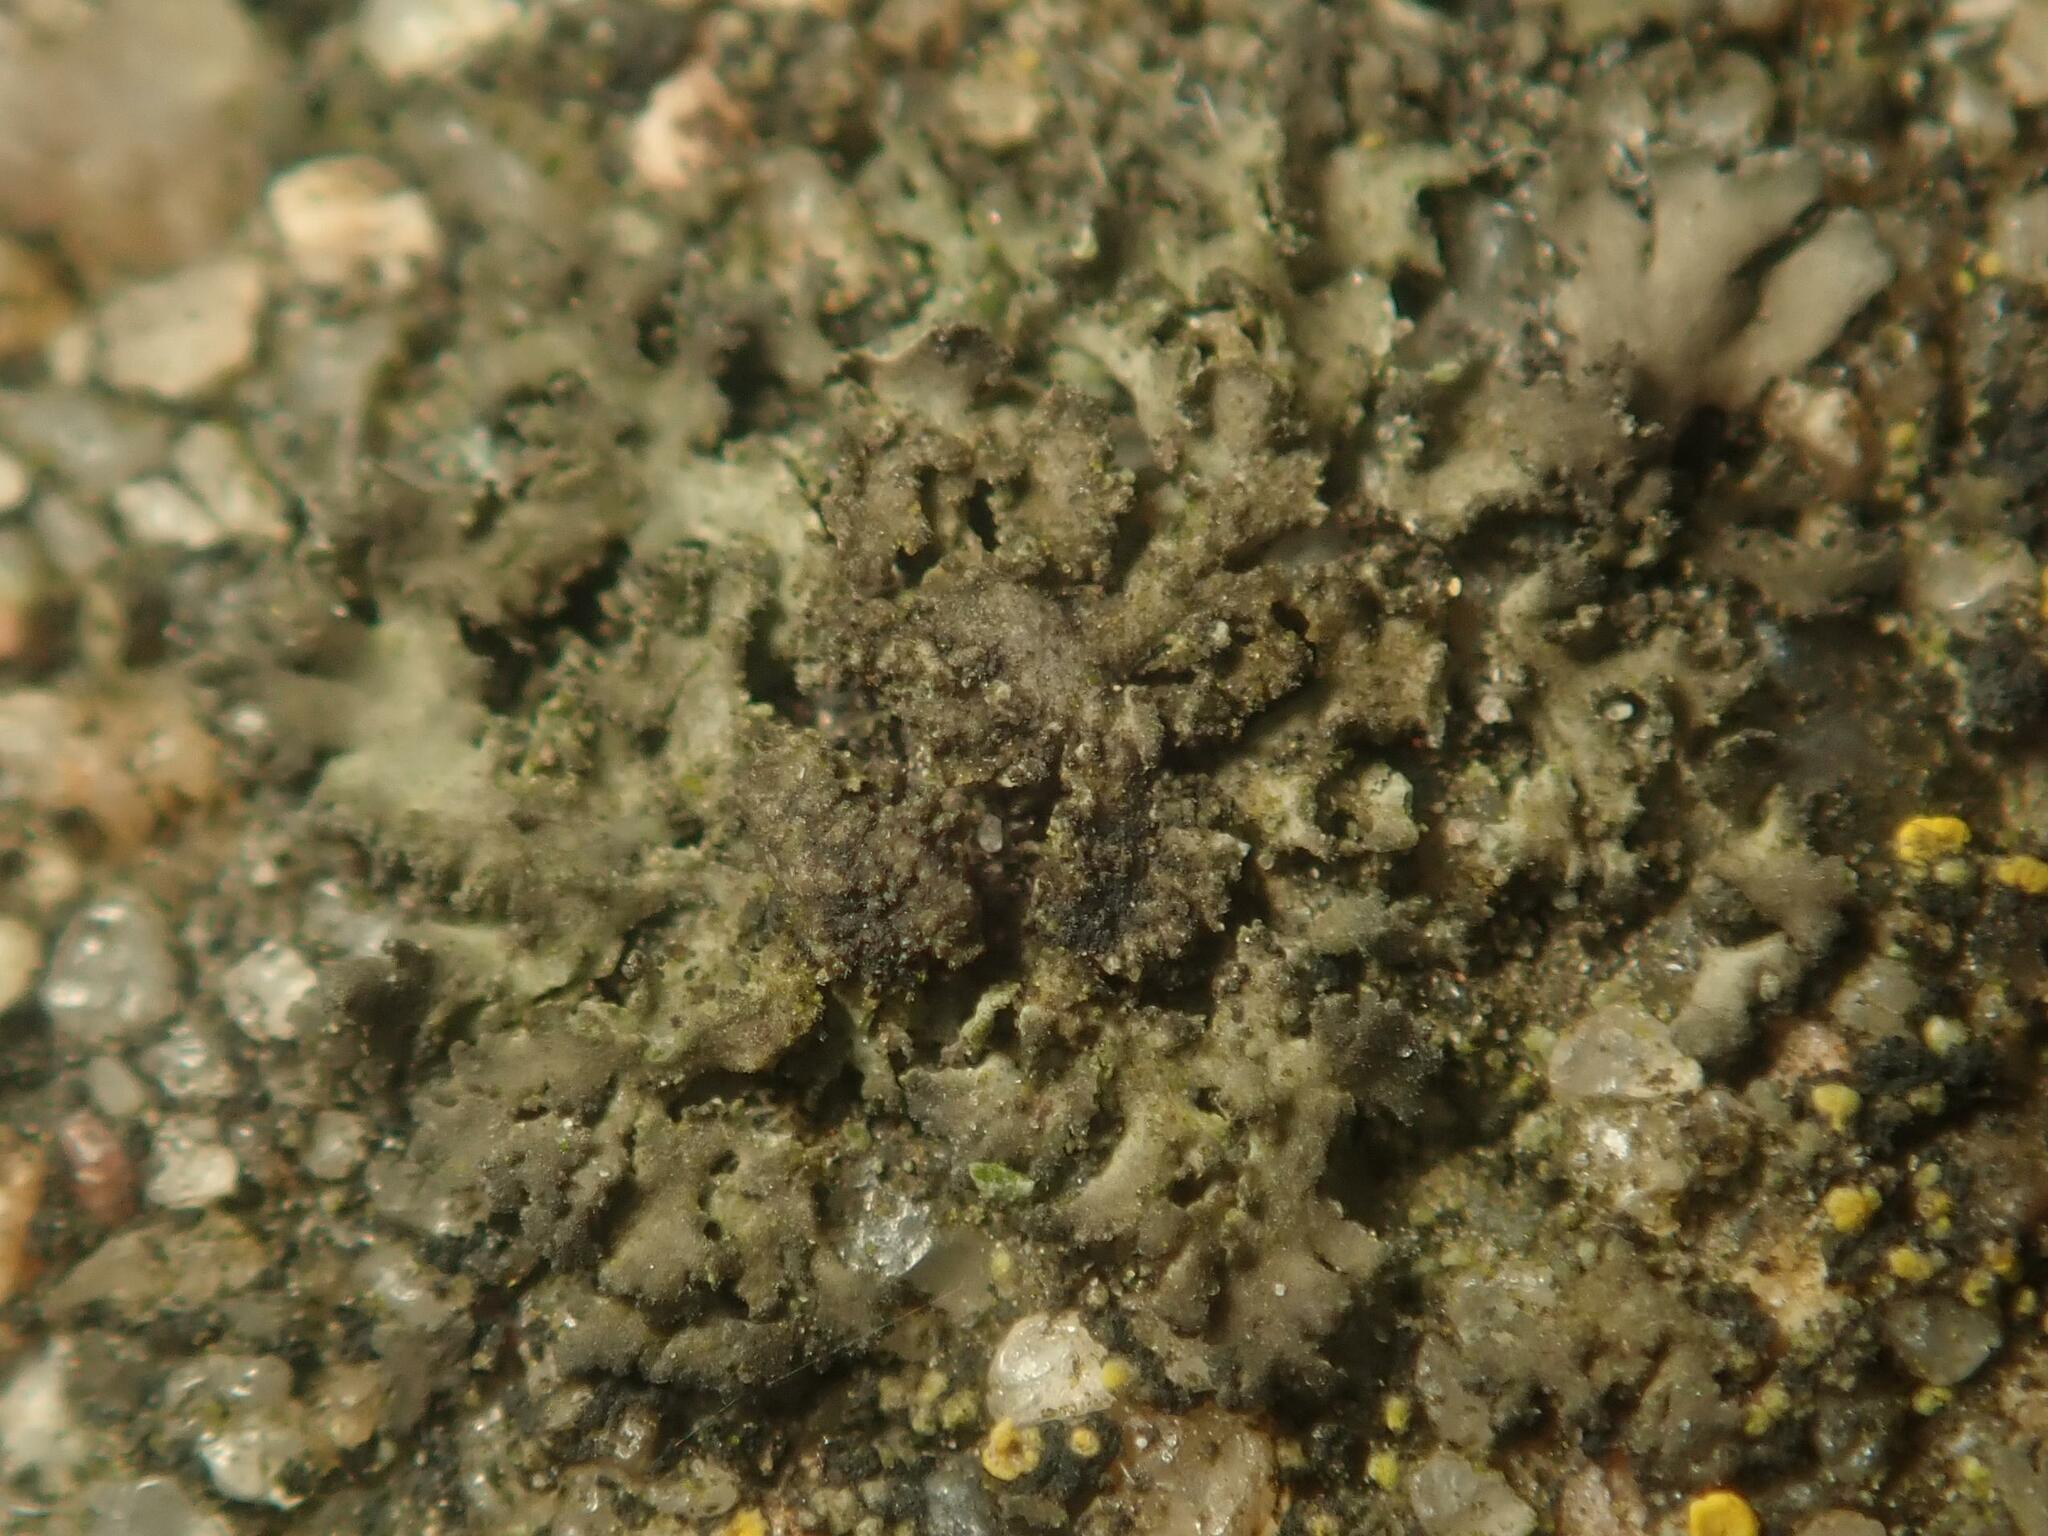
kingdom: Fungi
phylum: Ascomycota
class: Lecanoromycetes
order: Caliciales
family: Physciaceae
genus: Physciella
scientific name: Physciella nigricans
